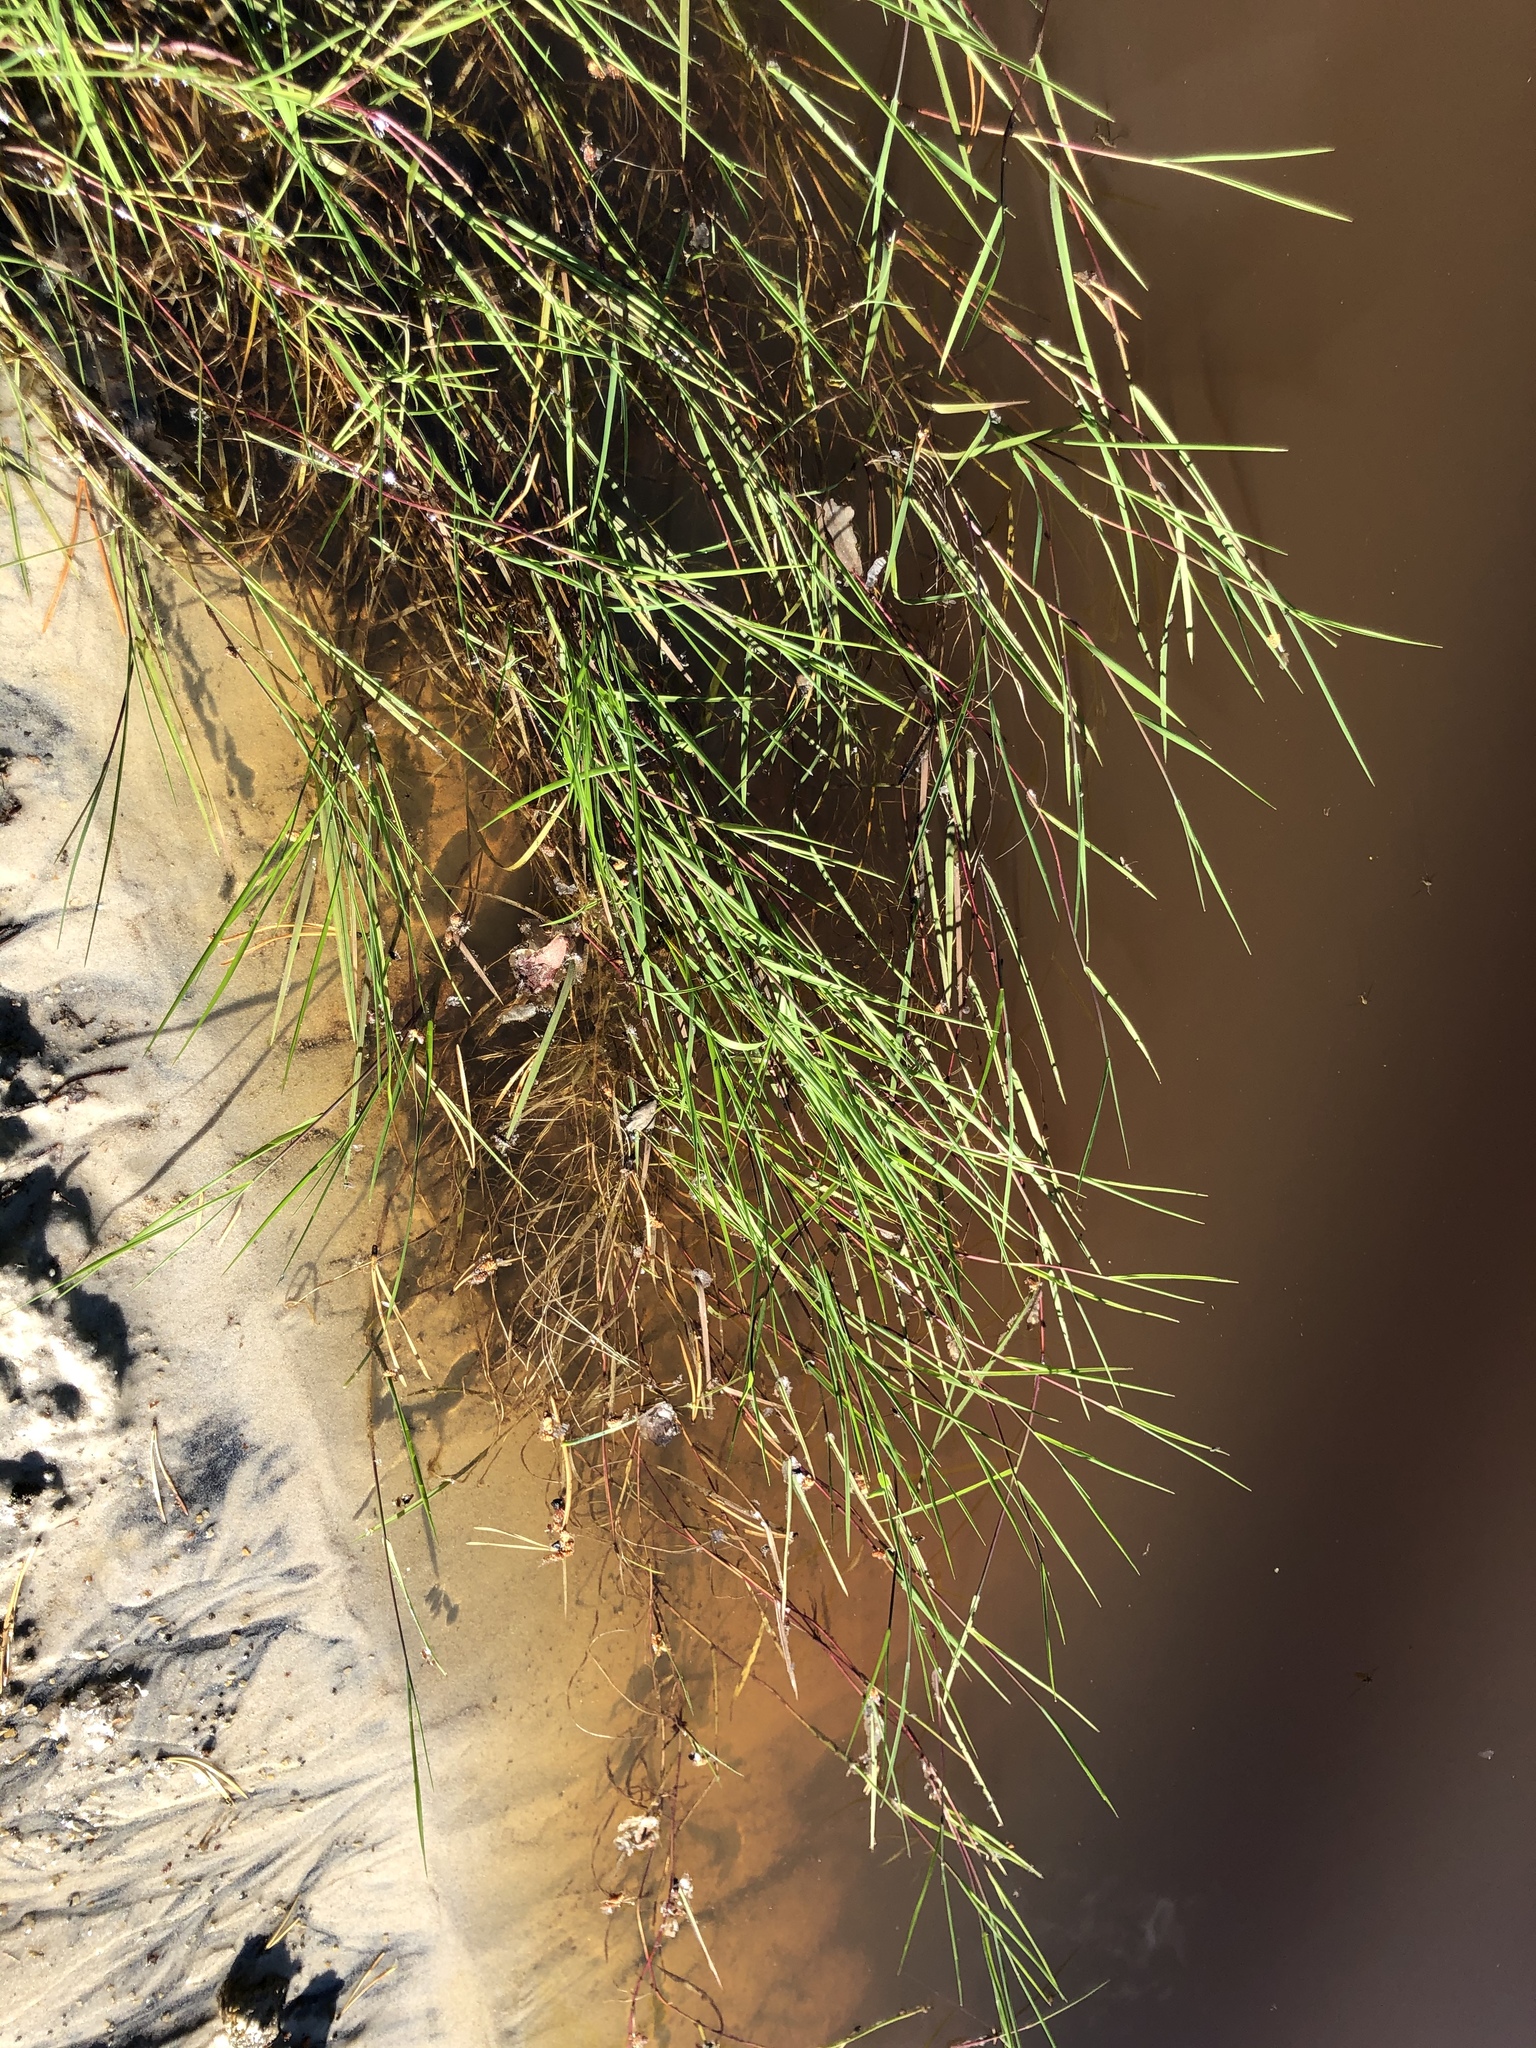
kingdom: Plantae
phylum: Tracheophyta
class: Liliopsida
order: Poales
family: Poaceae
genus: Agrostis
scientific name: Agrostis stolonifera
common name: Creeping bentgrass
